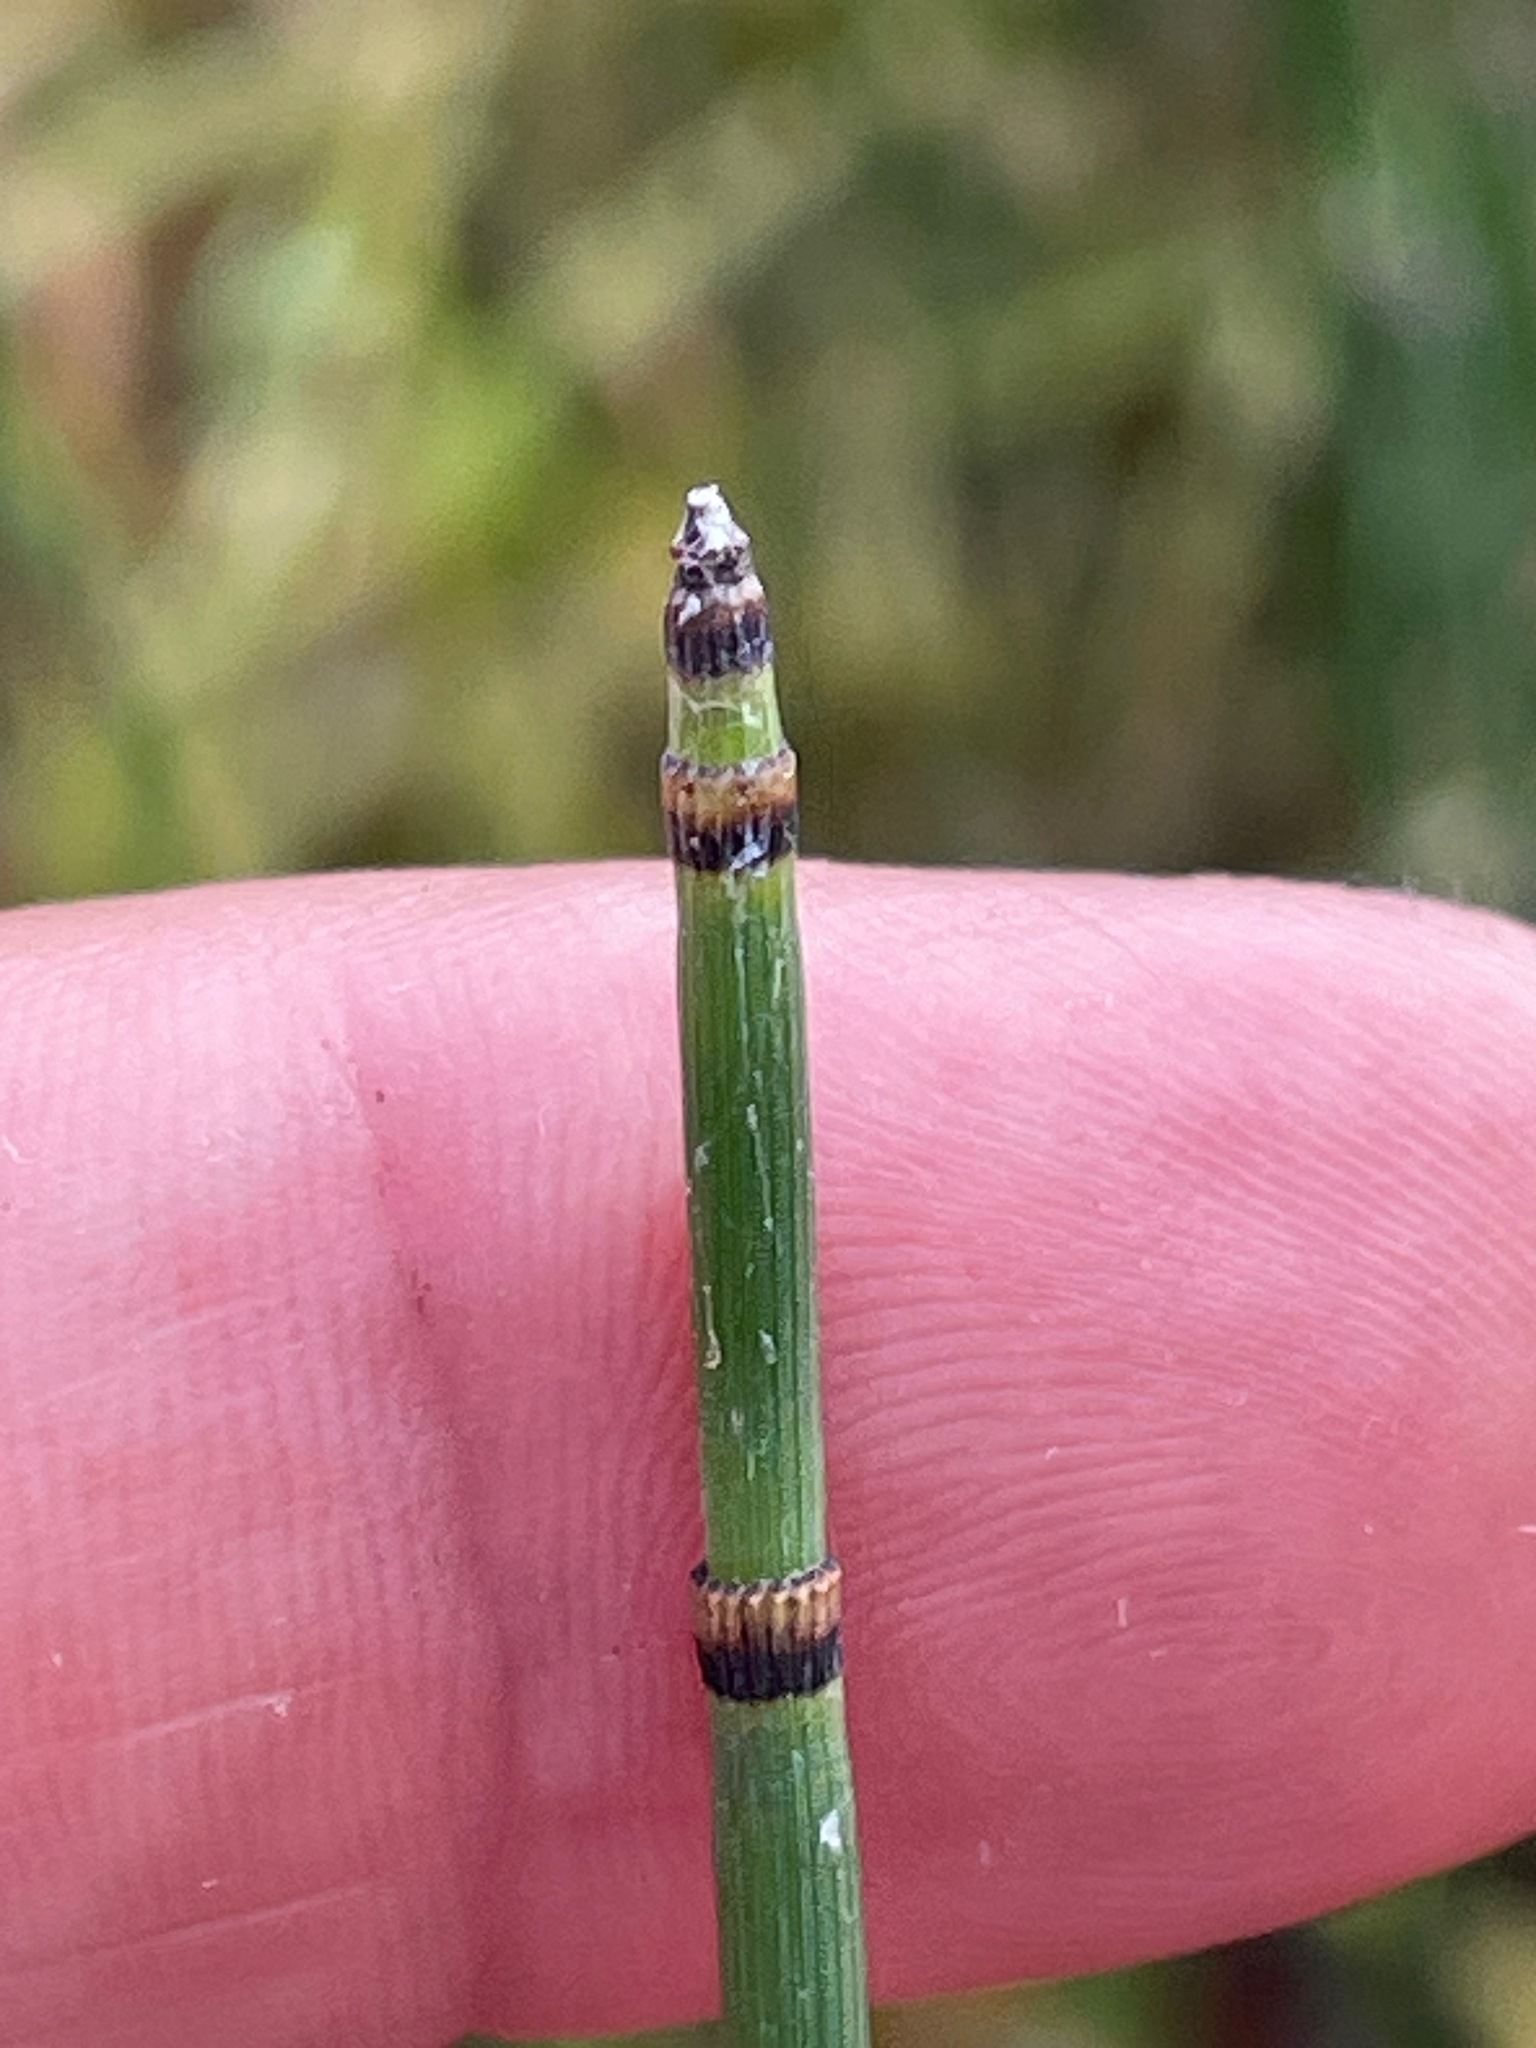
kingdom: Plantae
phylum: Tracheophyta
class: Polypodiopsida
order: Equisetales
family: Equisetaceae
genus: Equisetum
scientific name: Equisetum hyemale
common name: Rough horsetail
